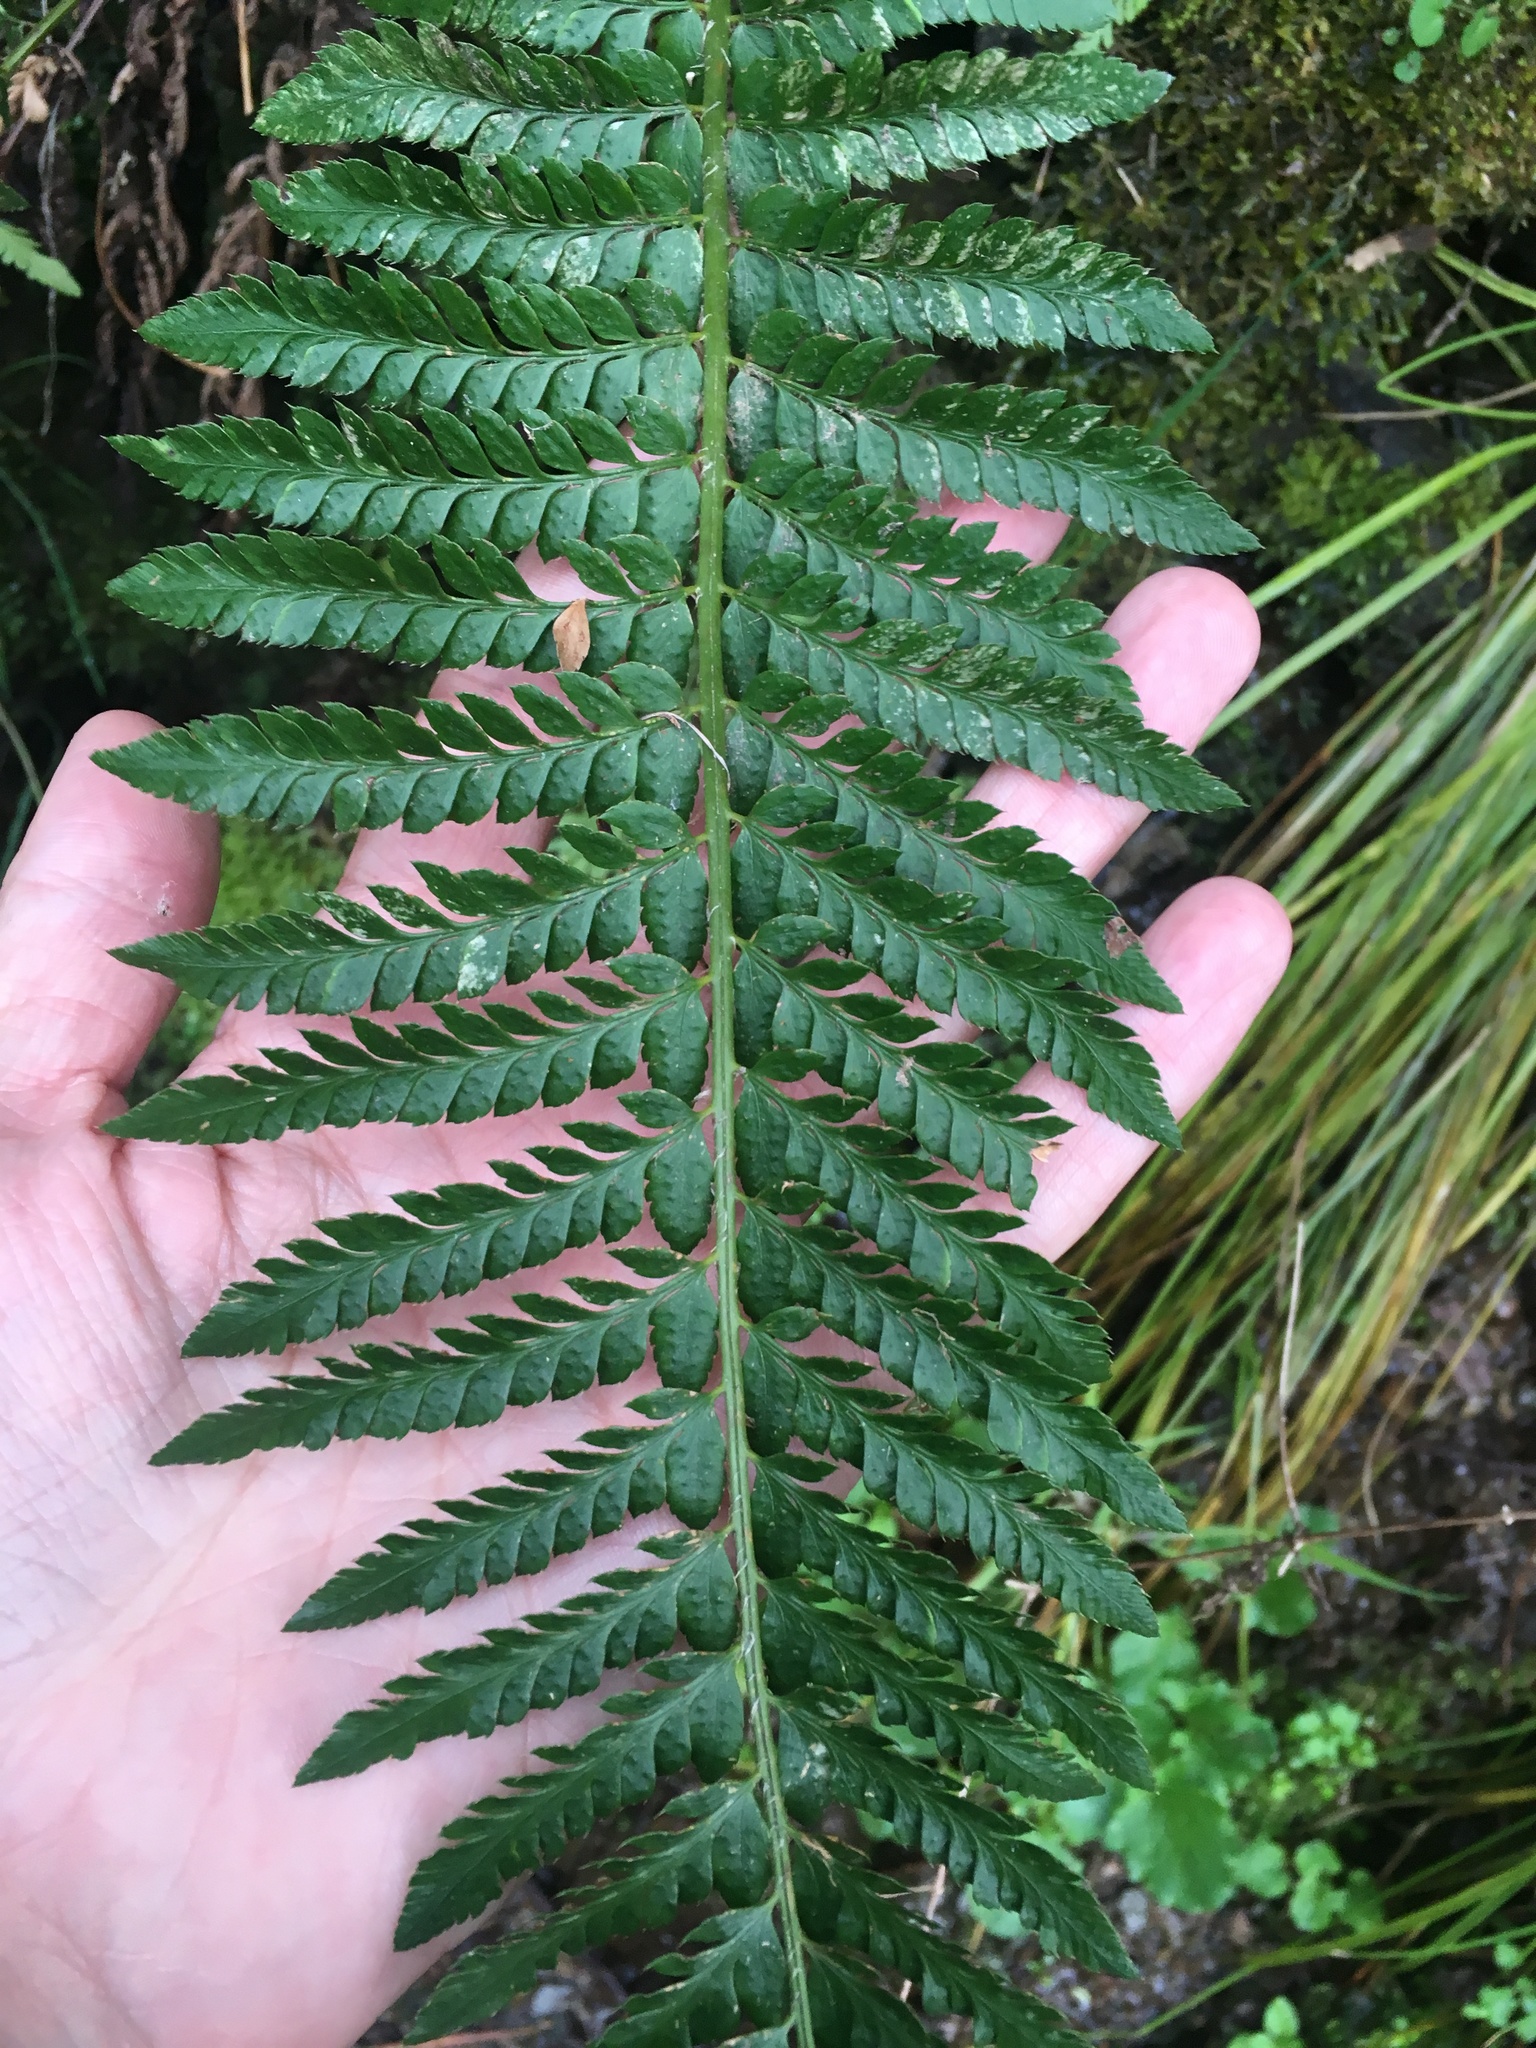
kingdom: Plantae
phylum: Tracheophyta
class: Polypodiopsida
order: Polypodiales
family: Dryopteridaceae
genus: Polystichum
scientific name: Polystichum californicum
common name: California sword fern
